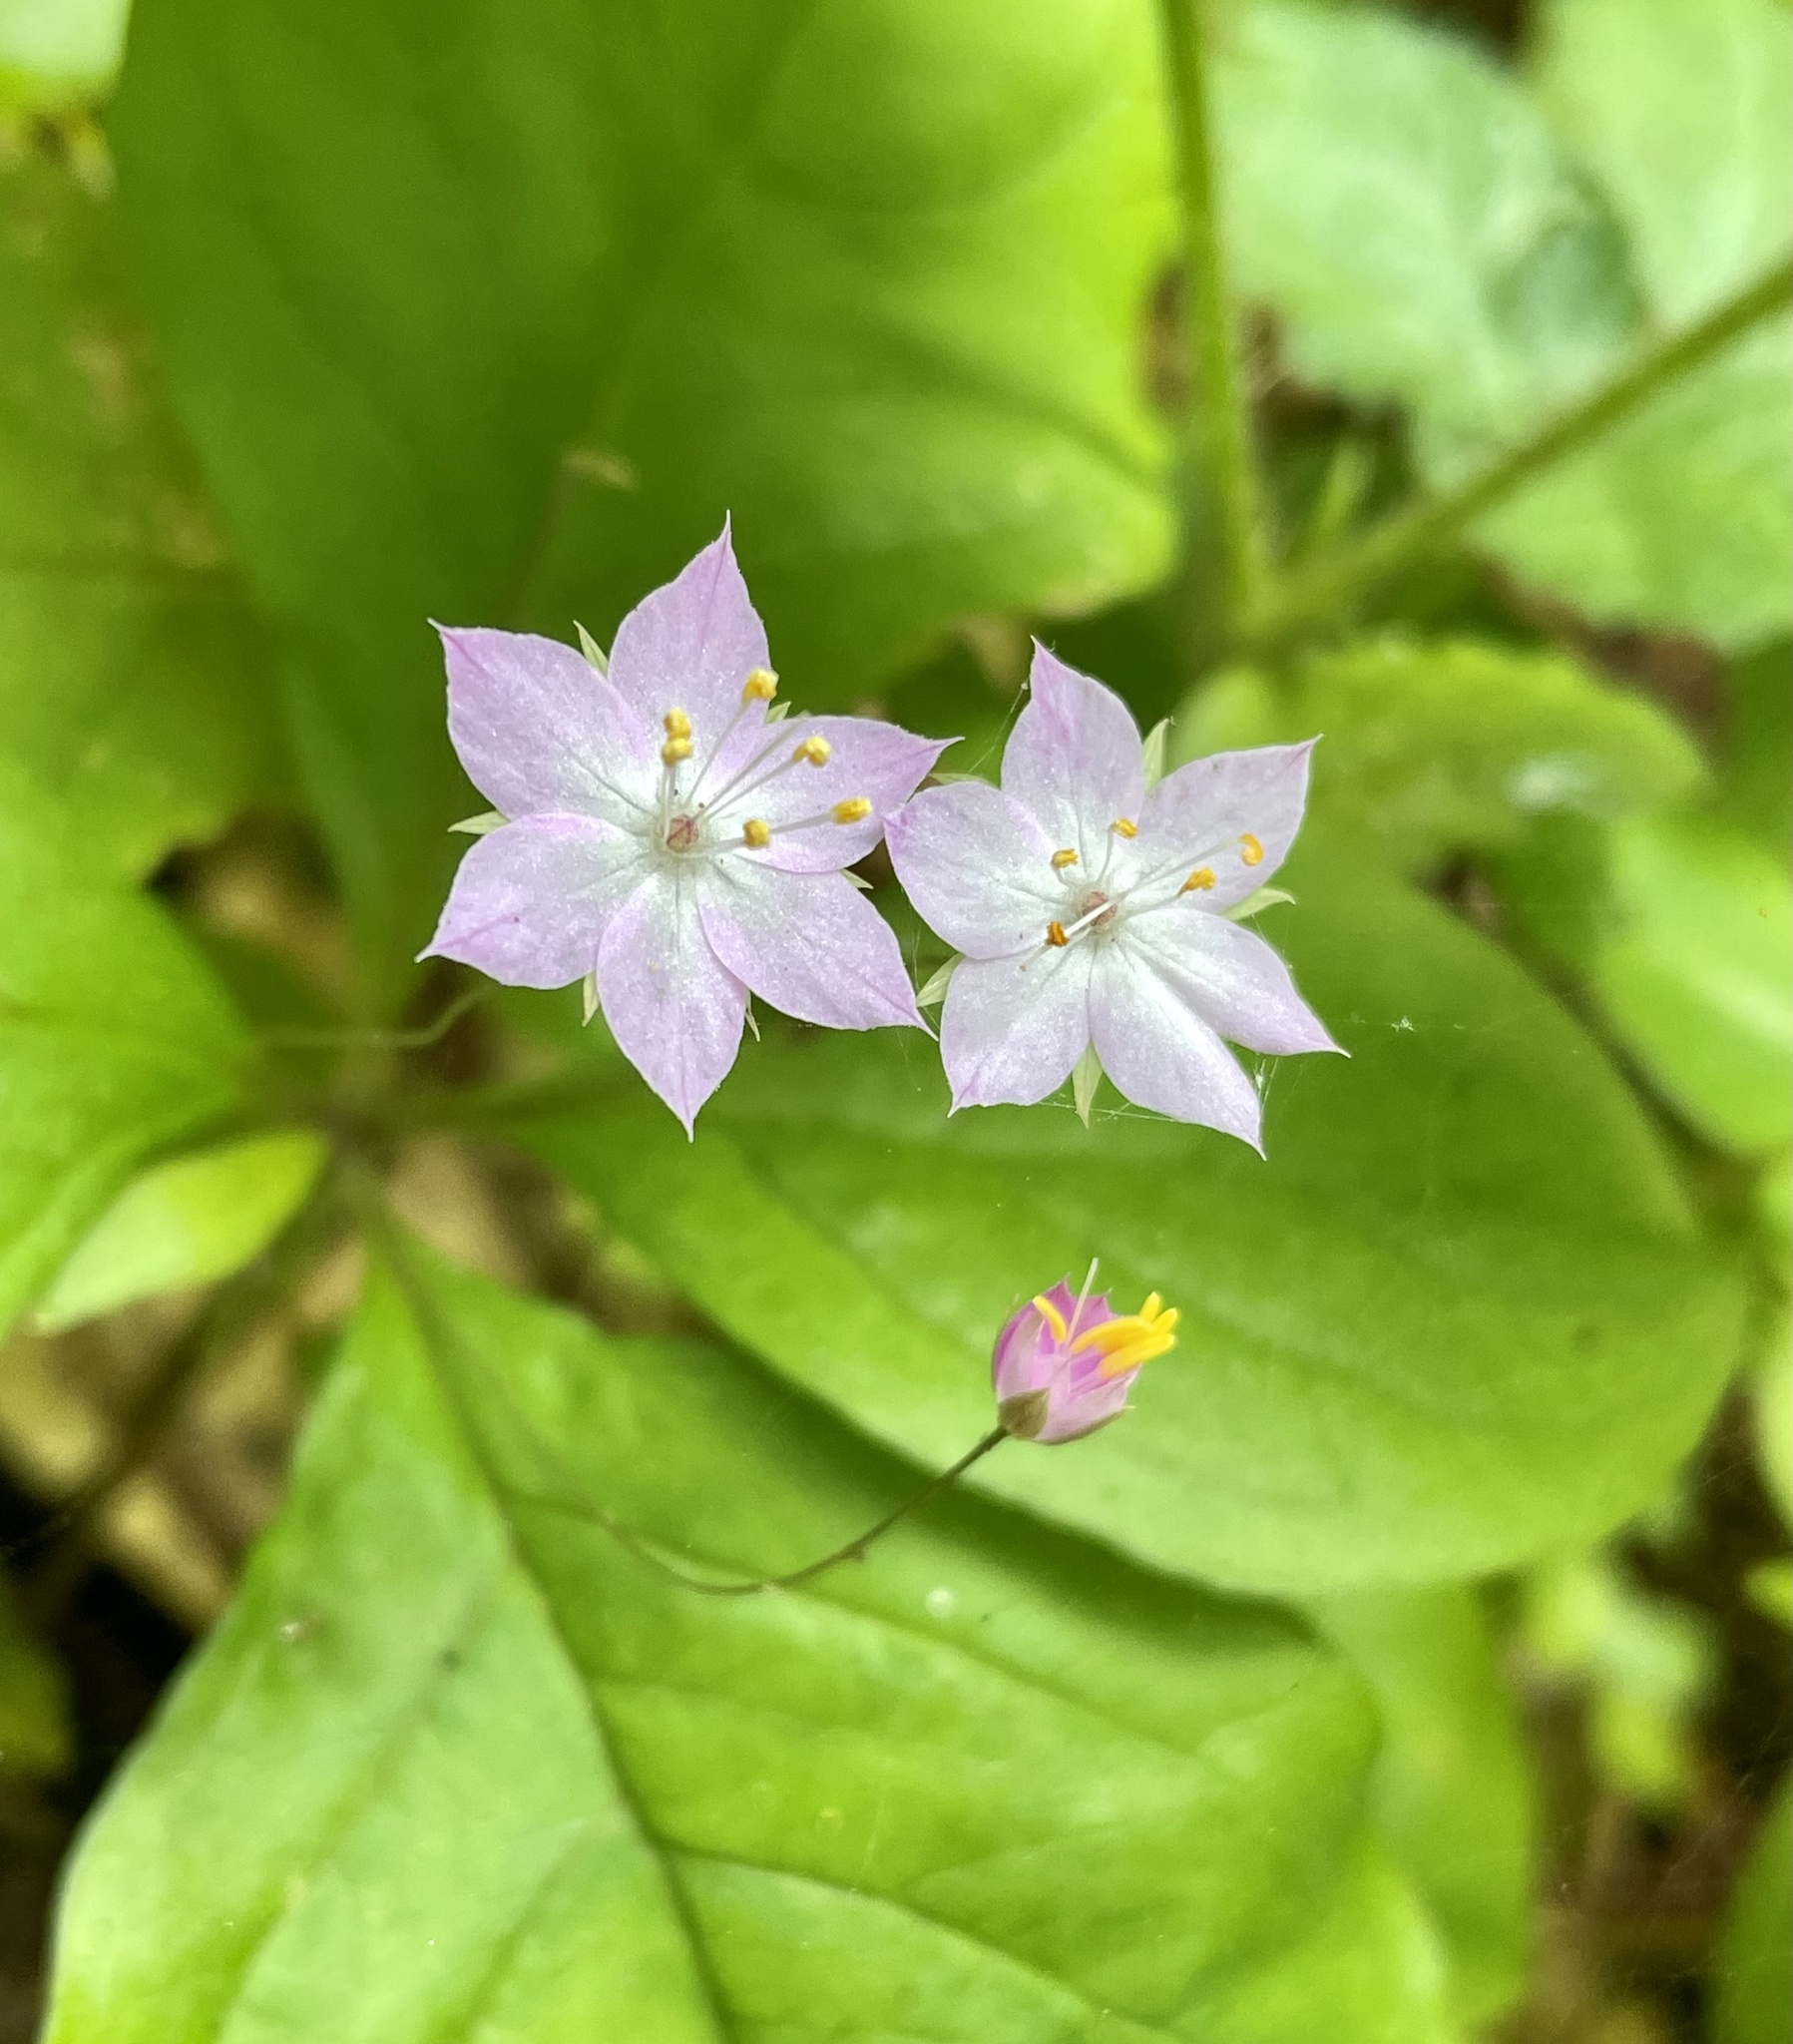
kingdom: Plantae
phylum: Tracheophyta
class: Magnoliopsida
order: Ericales
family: Primulaceae
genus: Lysimachia
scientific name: Lysimachia latifolia
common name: Pacific starflower
